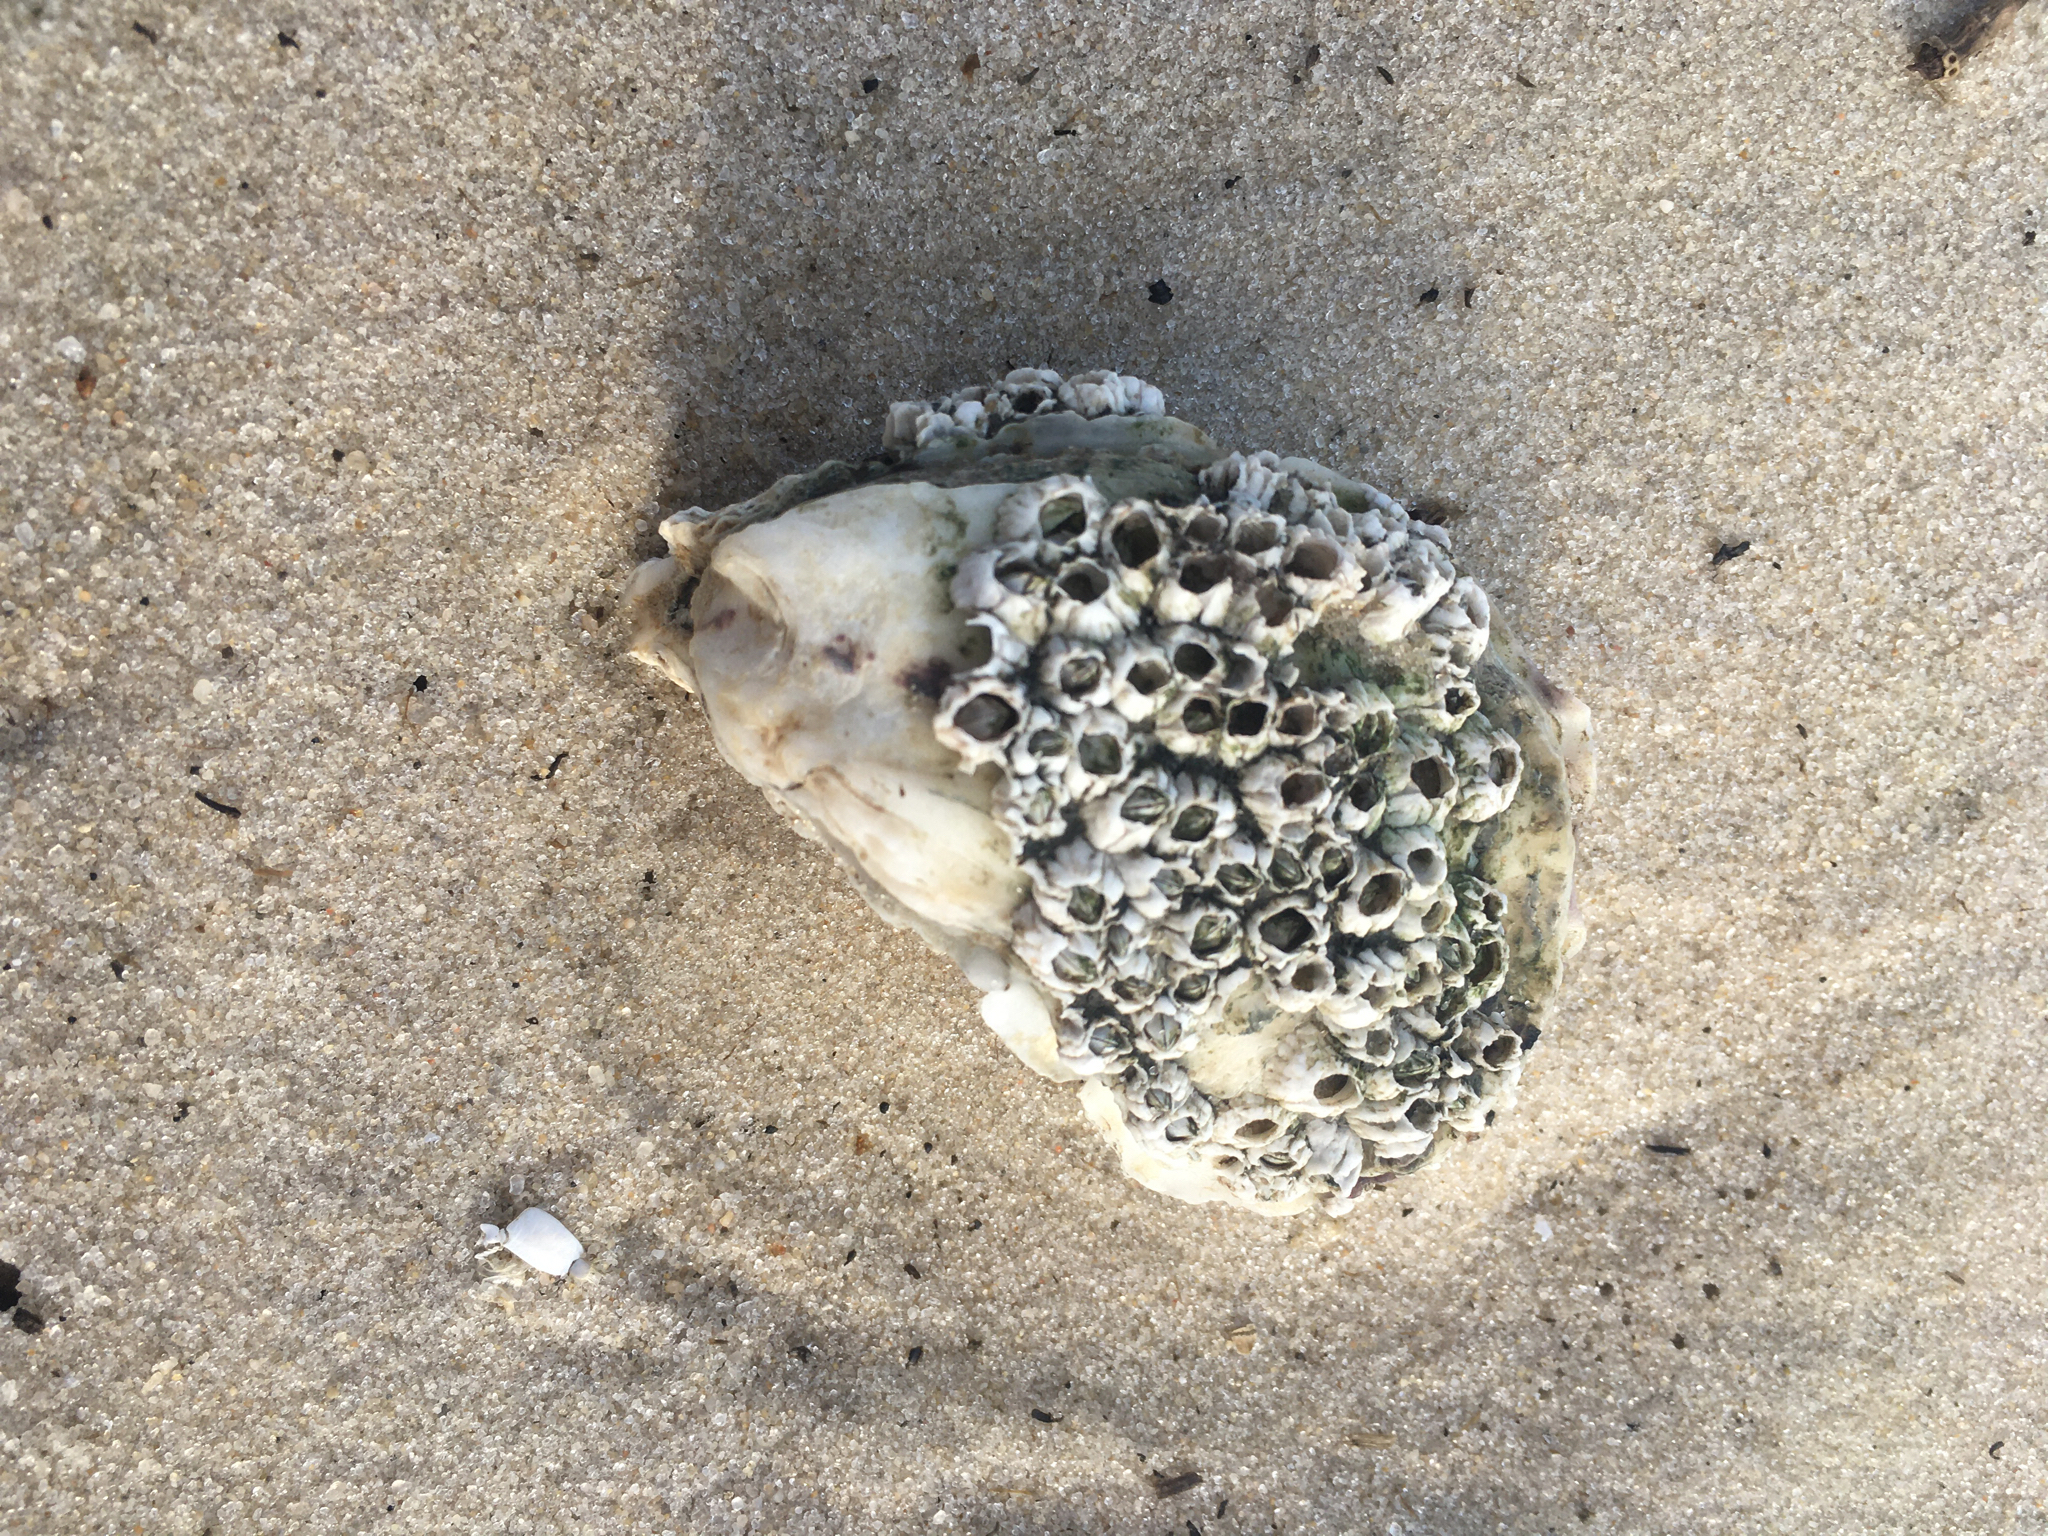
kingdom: Animalia
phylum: Arthropoda
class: Maxillopoda
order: Sessilia
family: Archaeobalanidae
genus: Semibalanus
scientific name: Semibalanus balanoides
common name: Acorn barnacle
